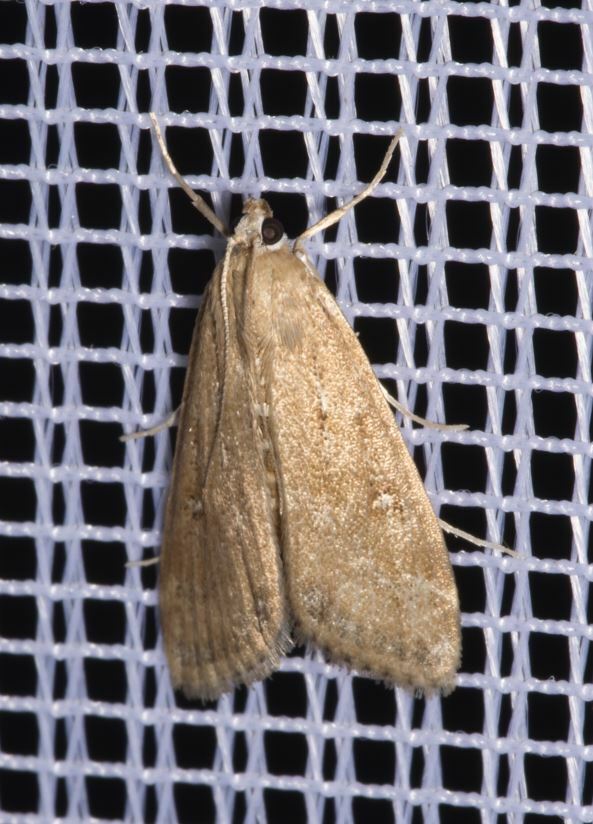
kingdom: Animalia
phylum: Arthropoda
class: Insecta
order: Lepidoptera
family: Crambidae
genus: Parapoynx
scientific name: Parapoynx stratiotata
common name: Ringed china-mark
